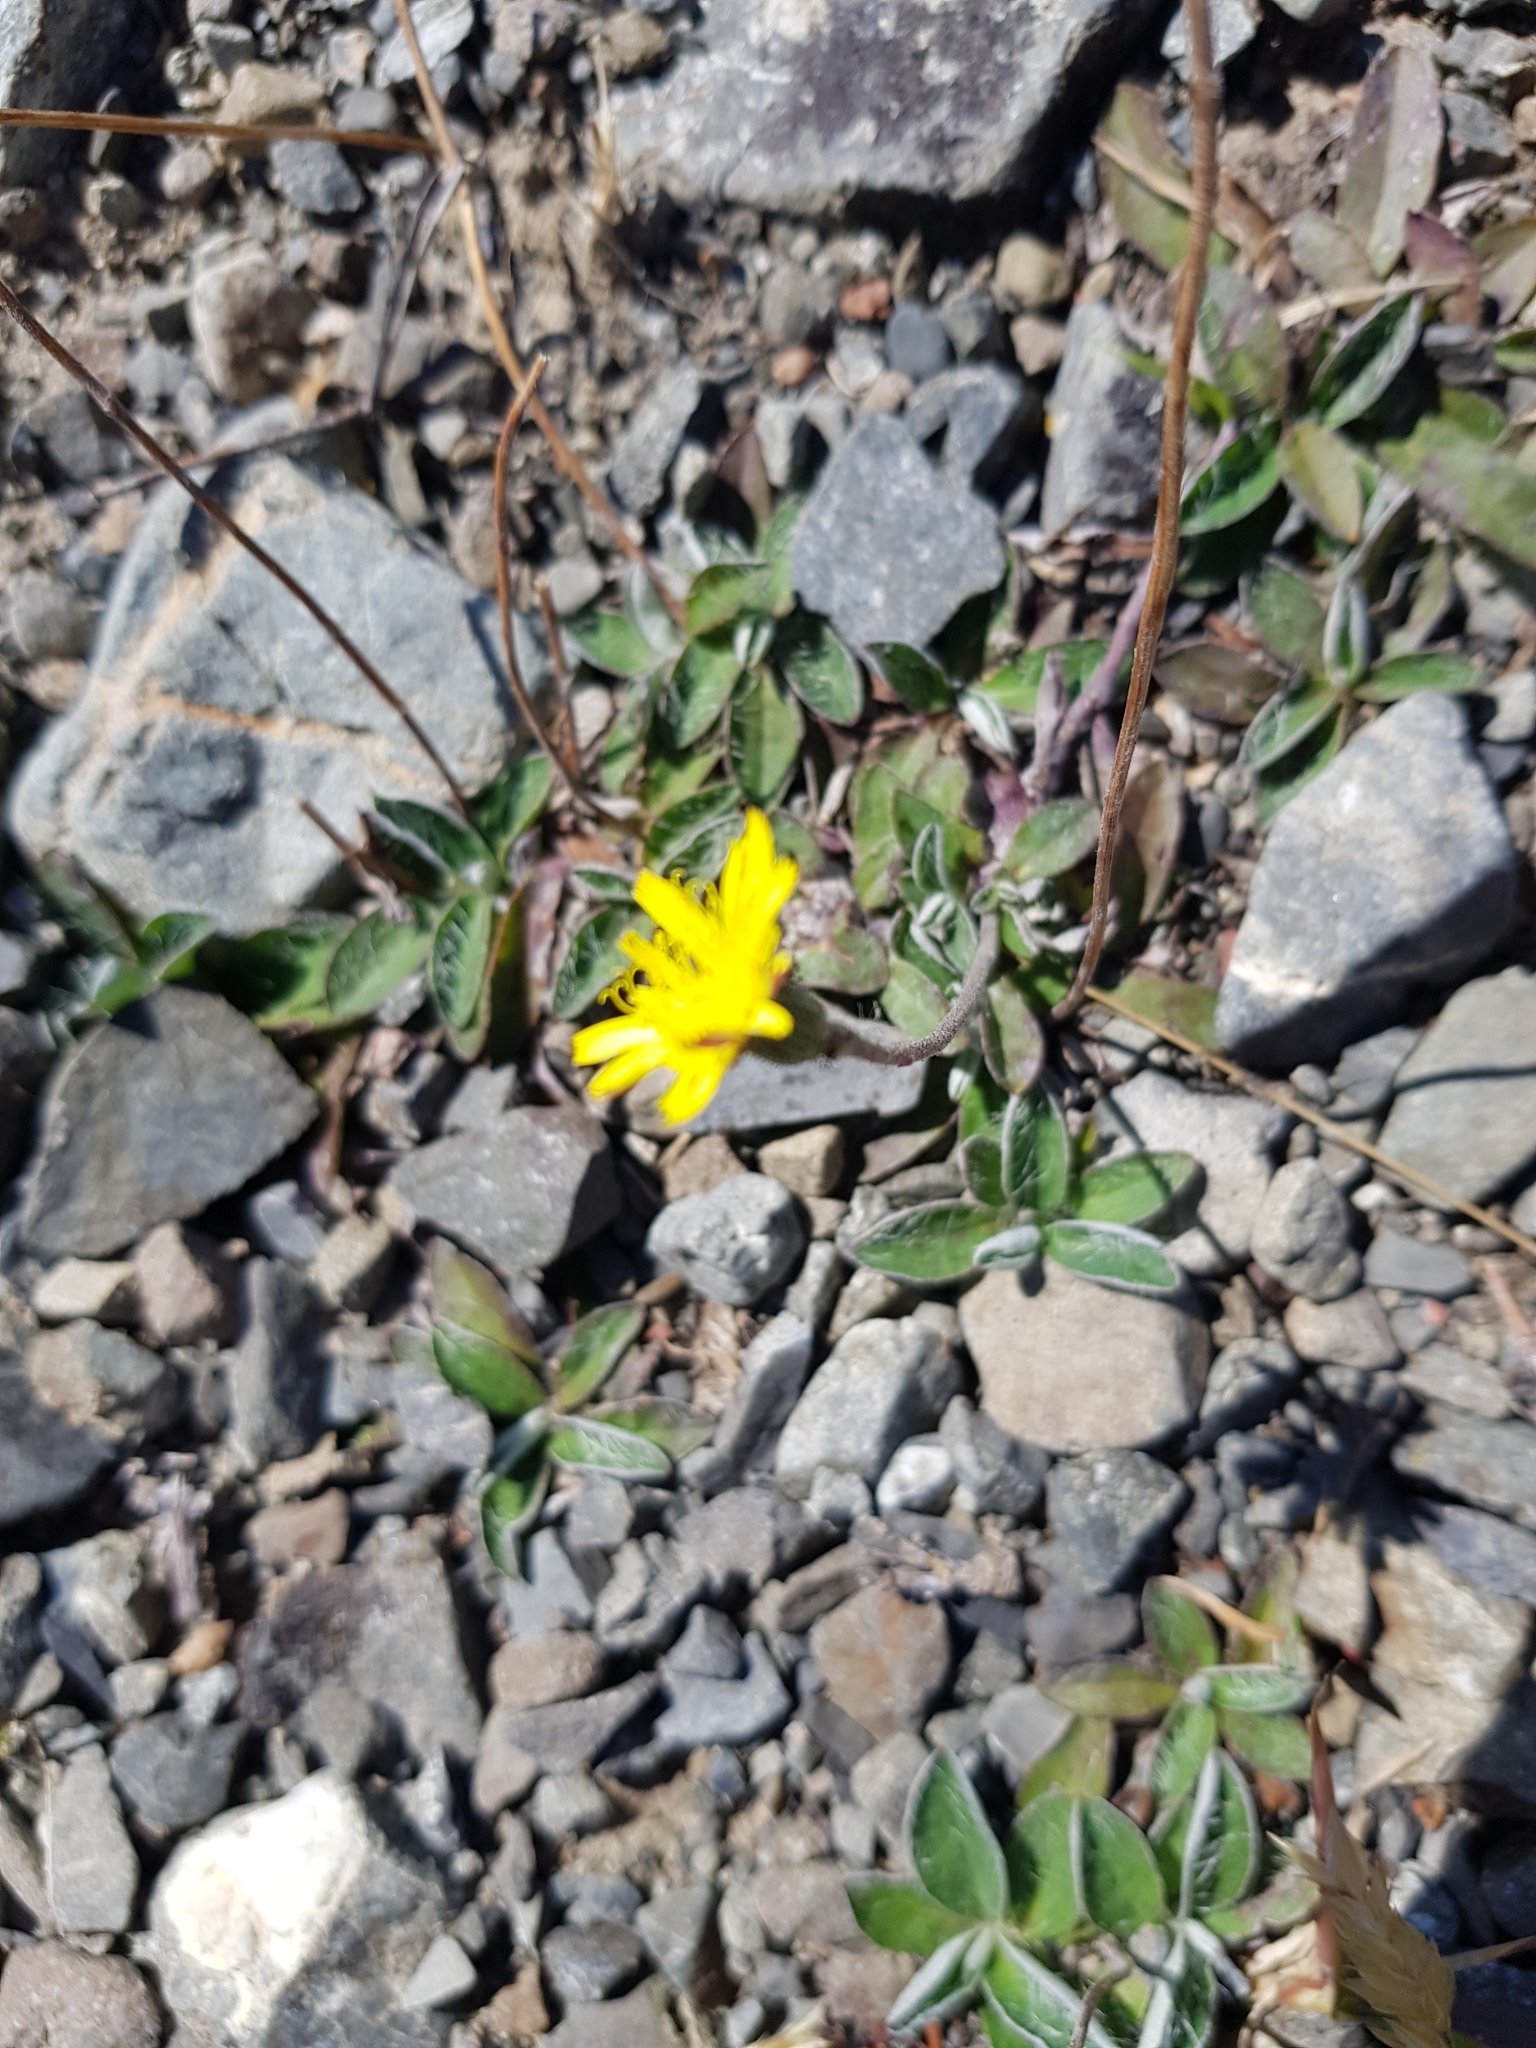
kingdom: Plantae
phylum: Tracheophyta
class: Magnoliopsida
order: Asterales
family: Asteraceae
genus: Pilosella
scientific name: Pilosella officinarum
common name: Mouse-ear hawkweed
